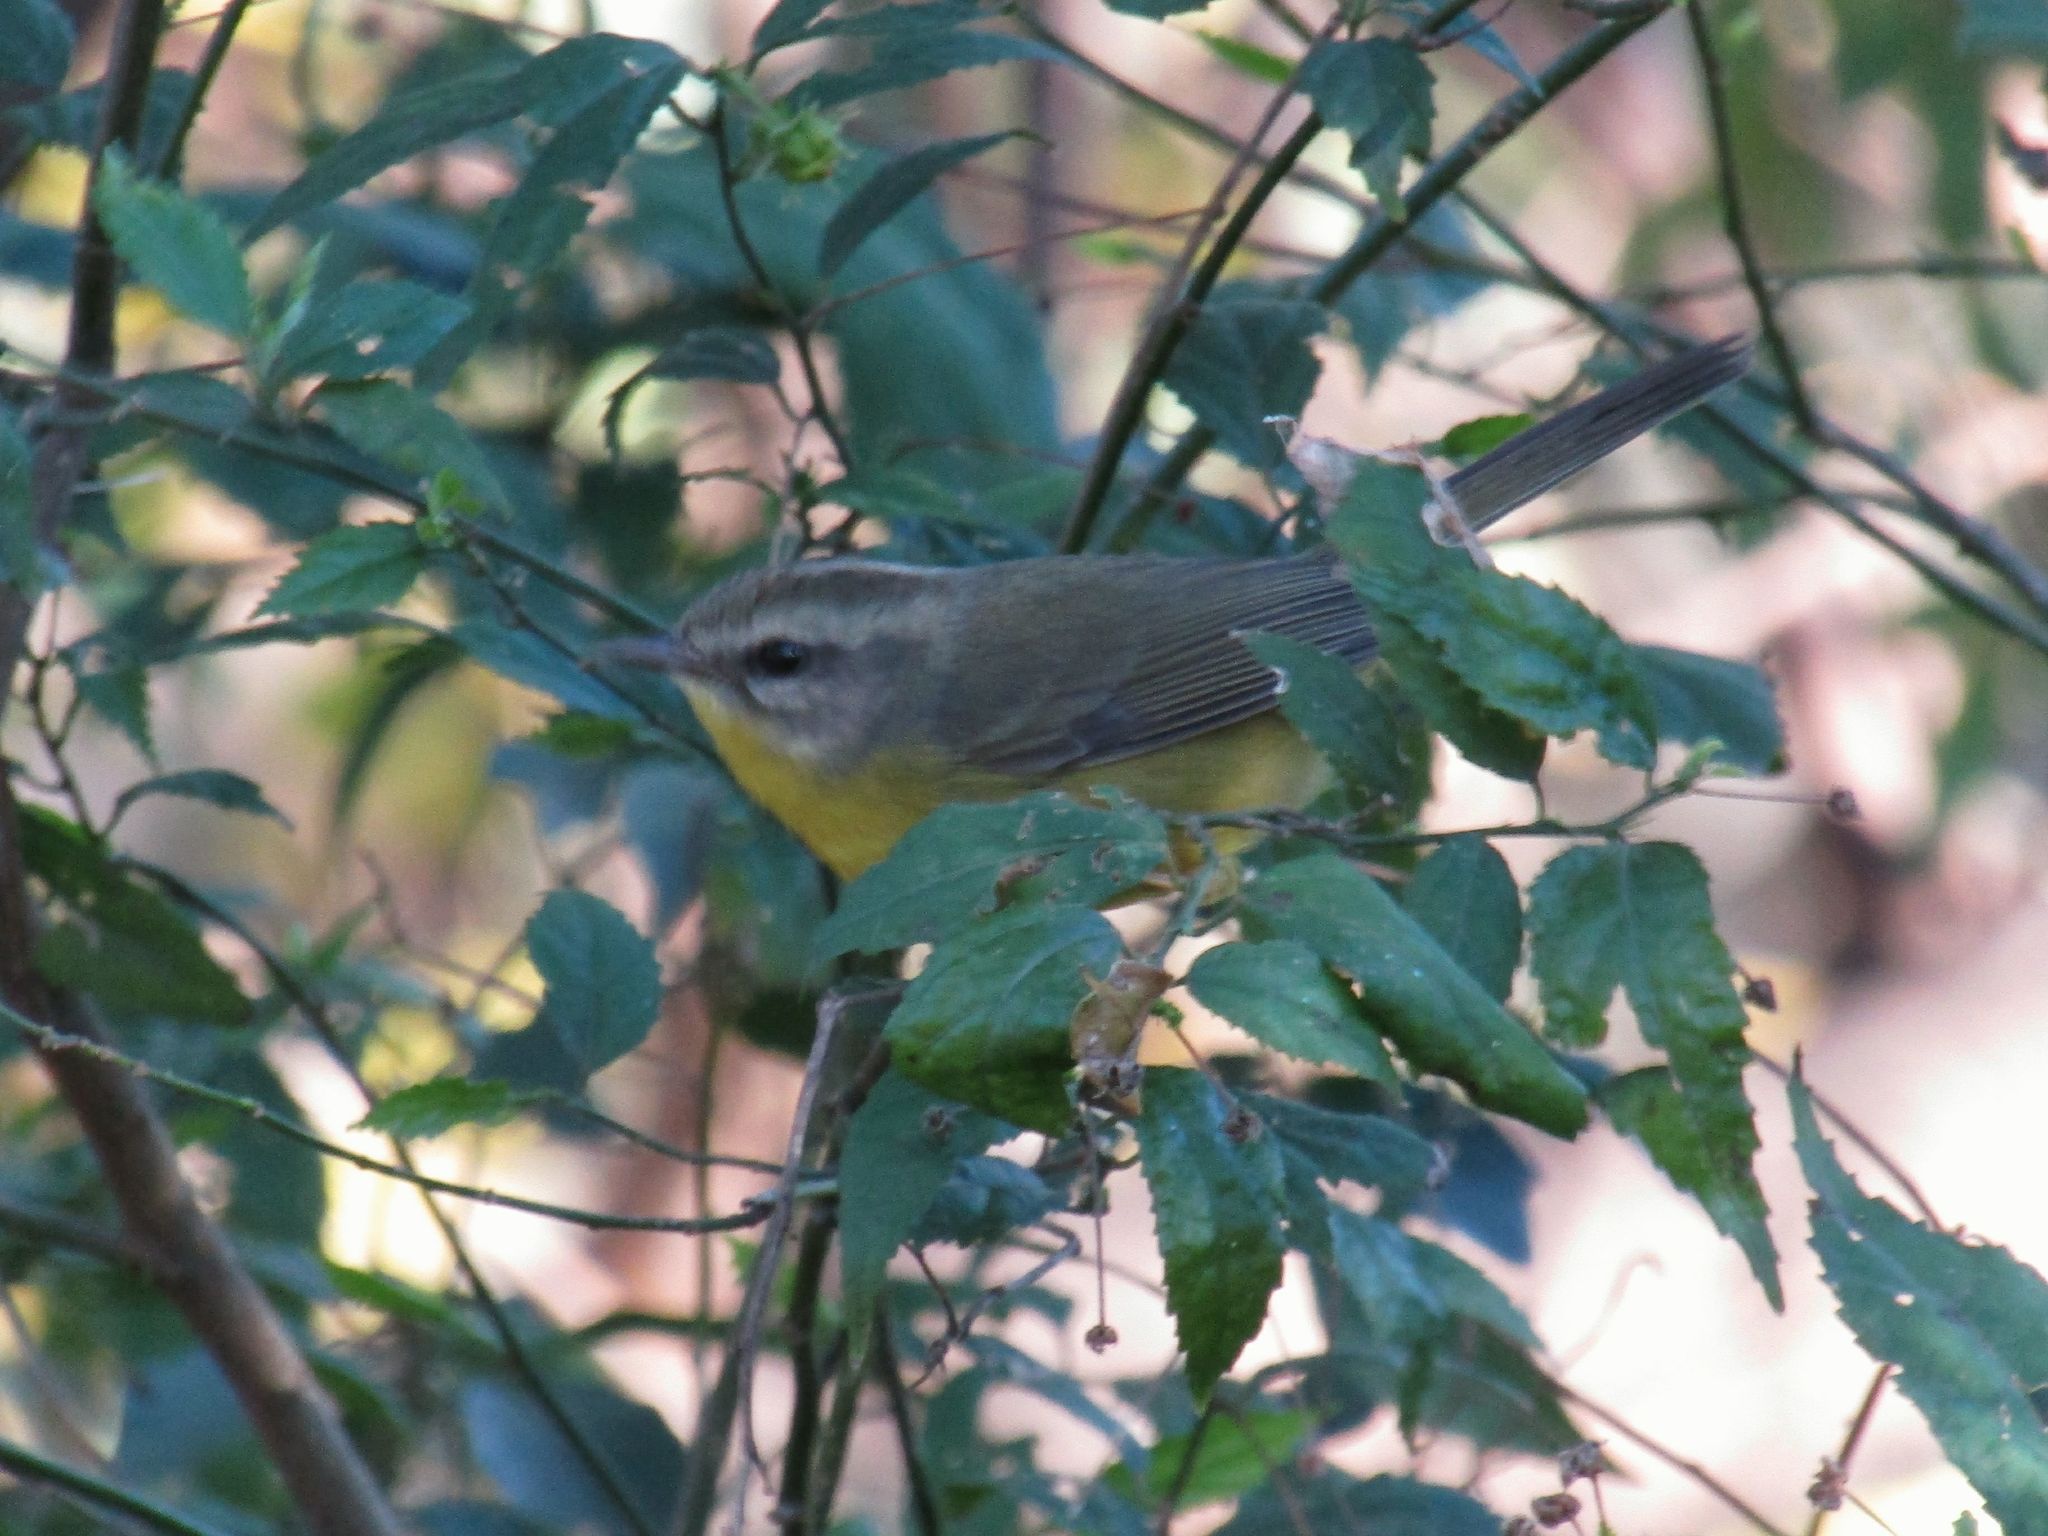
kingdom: Animalia
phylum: Chordata
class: Aves
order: Passeriformes
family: Parulidae
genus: Basileuterus
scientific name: Basileuterus culicivorus
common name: Golden-crowned warbler
